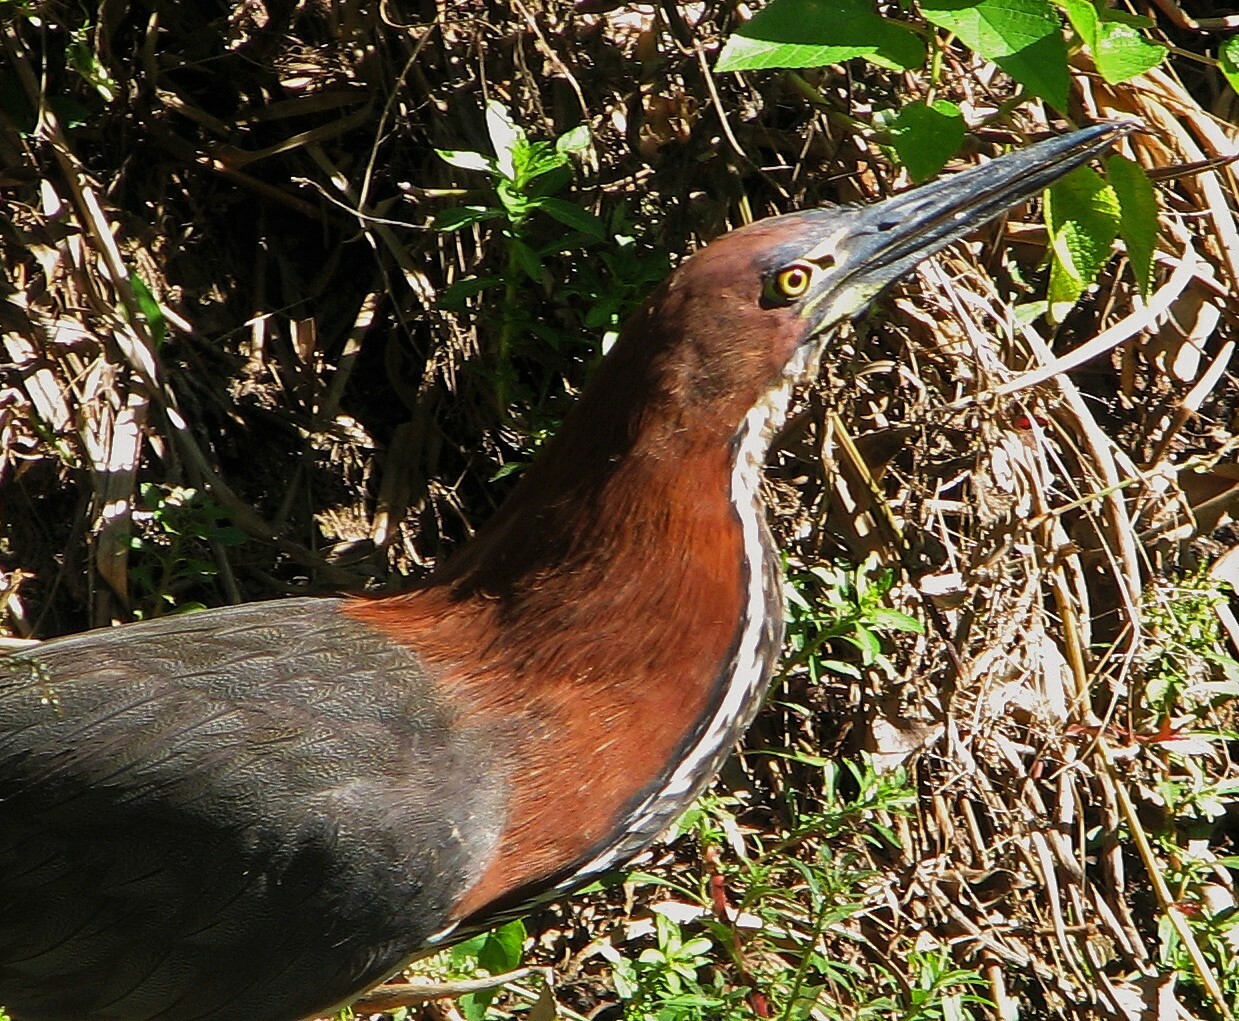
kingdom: Animalia
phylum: Chordata
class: Aves
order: Pelecaniformes
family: Ardeidae
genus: Tigrisoma
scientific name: Tigrisoma lineatum
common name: Rufescent tiger-heron
